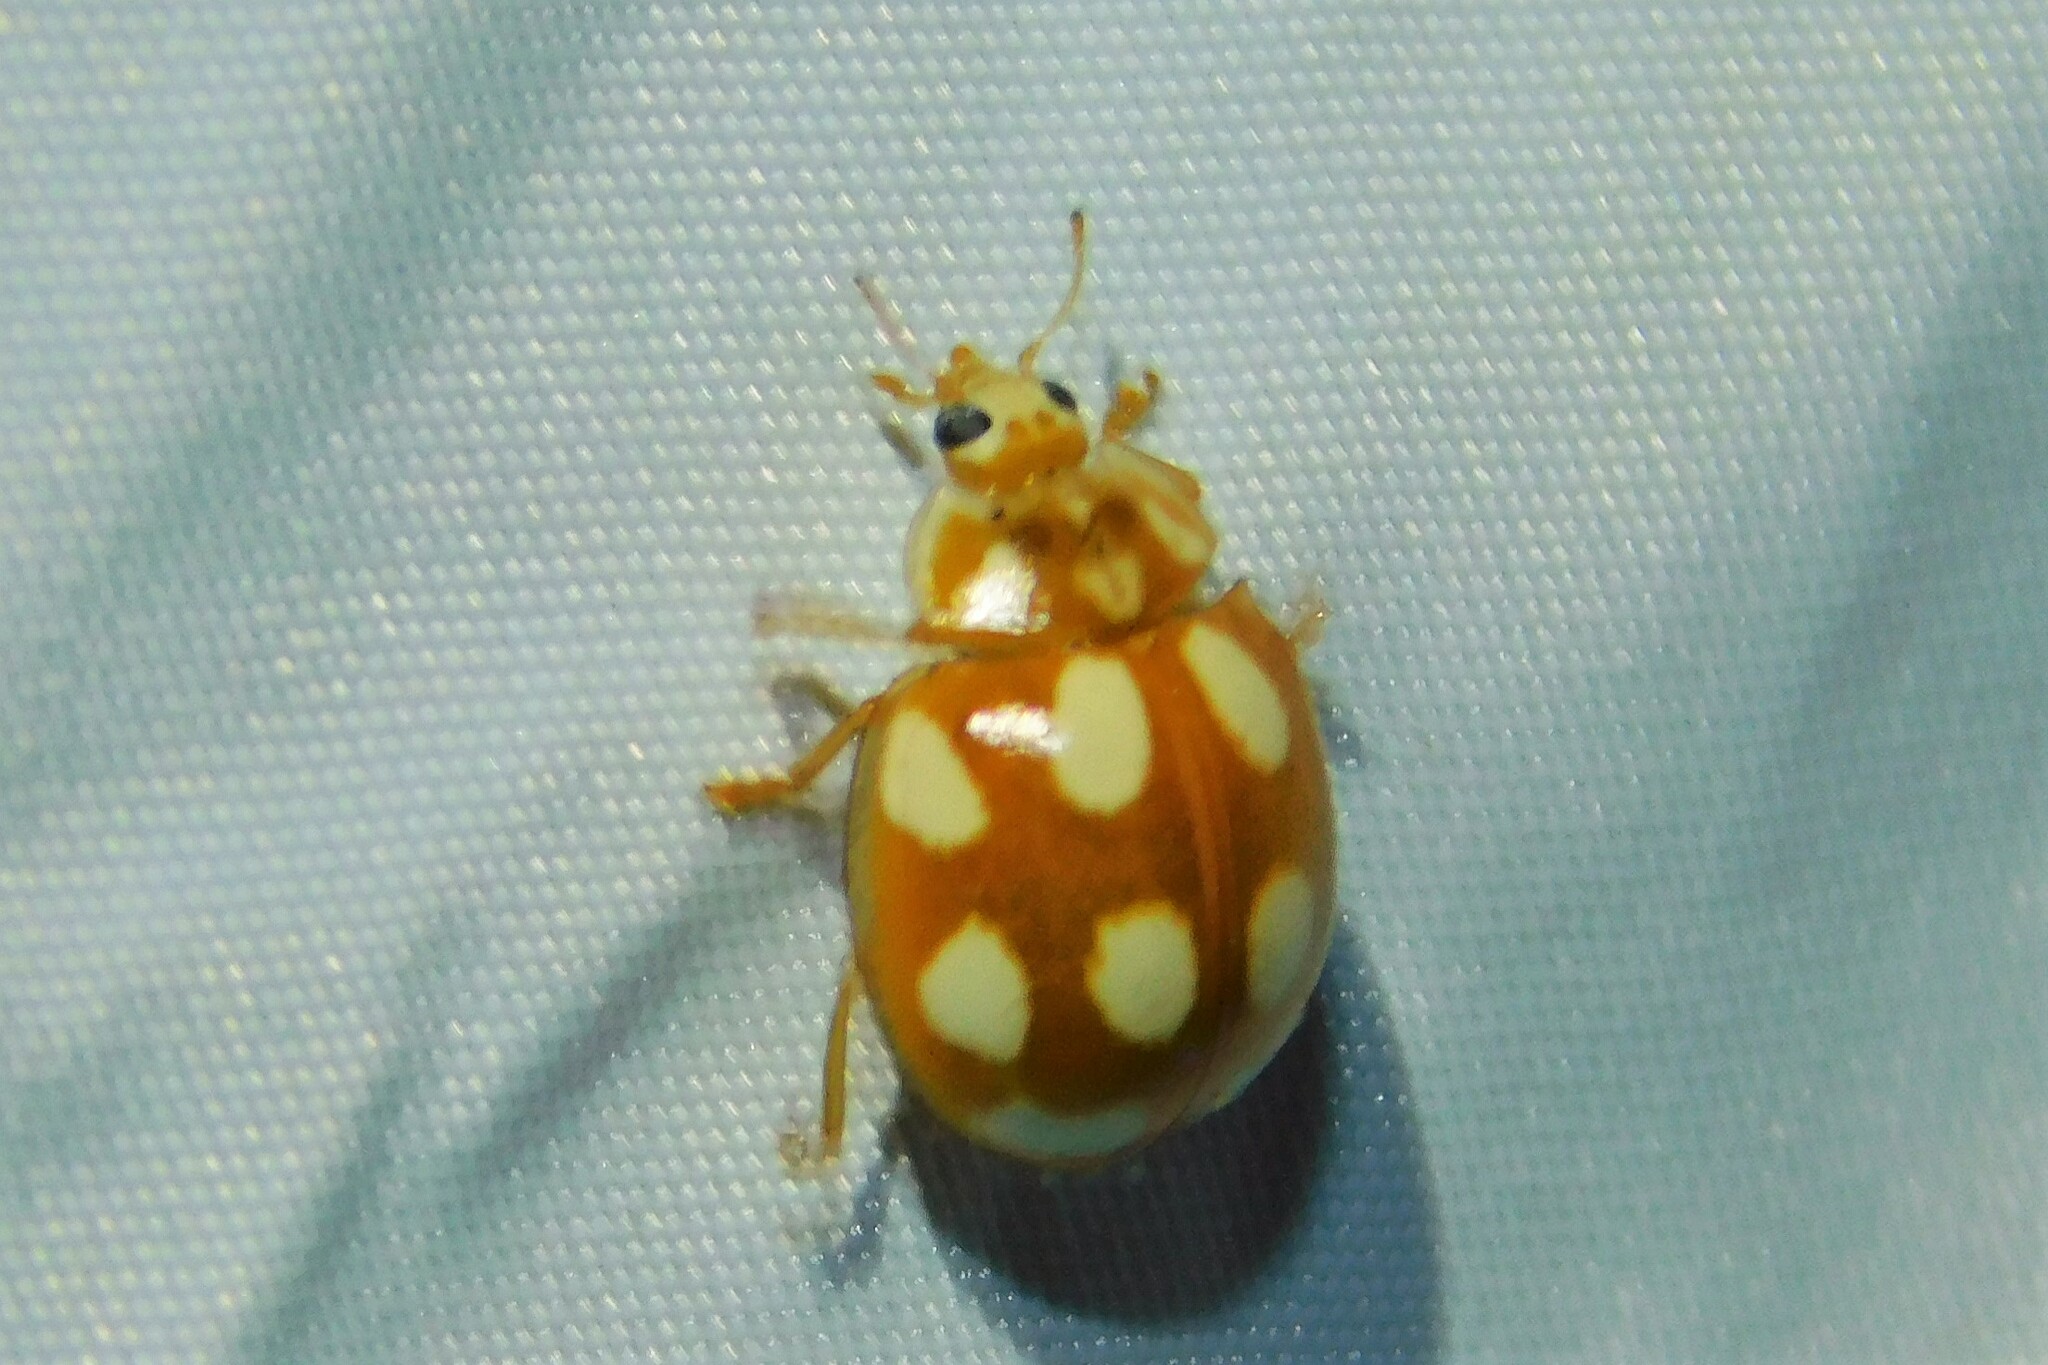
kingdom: Animalia
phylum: Arthropoda
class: Insecta
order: Coleoptera
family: Coccinellidae
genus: Calvia
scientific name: Calvia decemguttata
